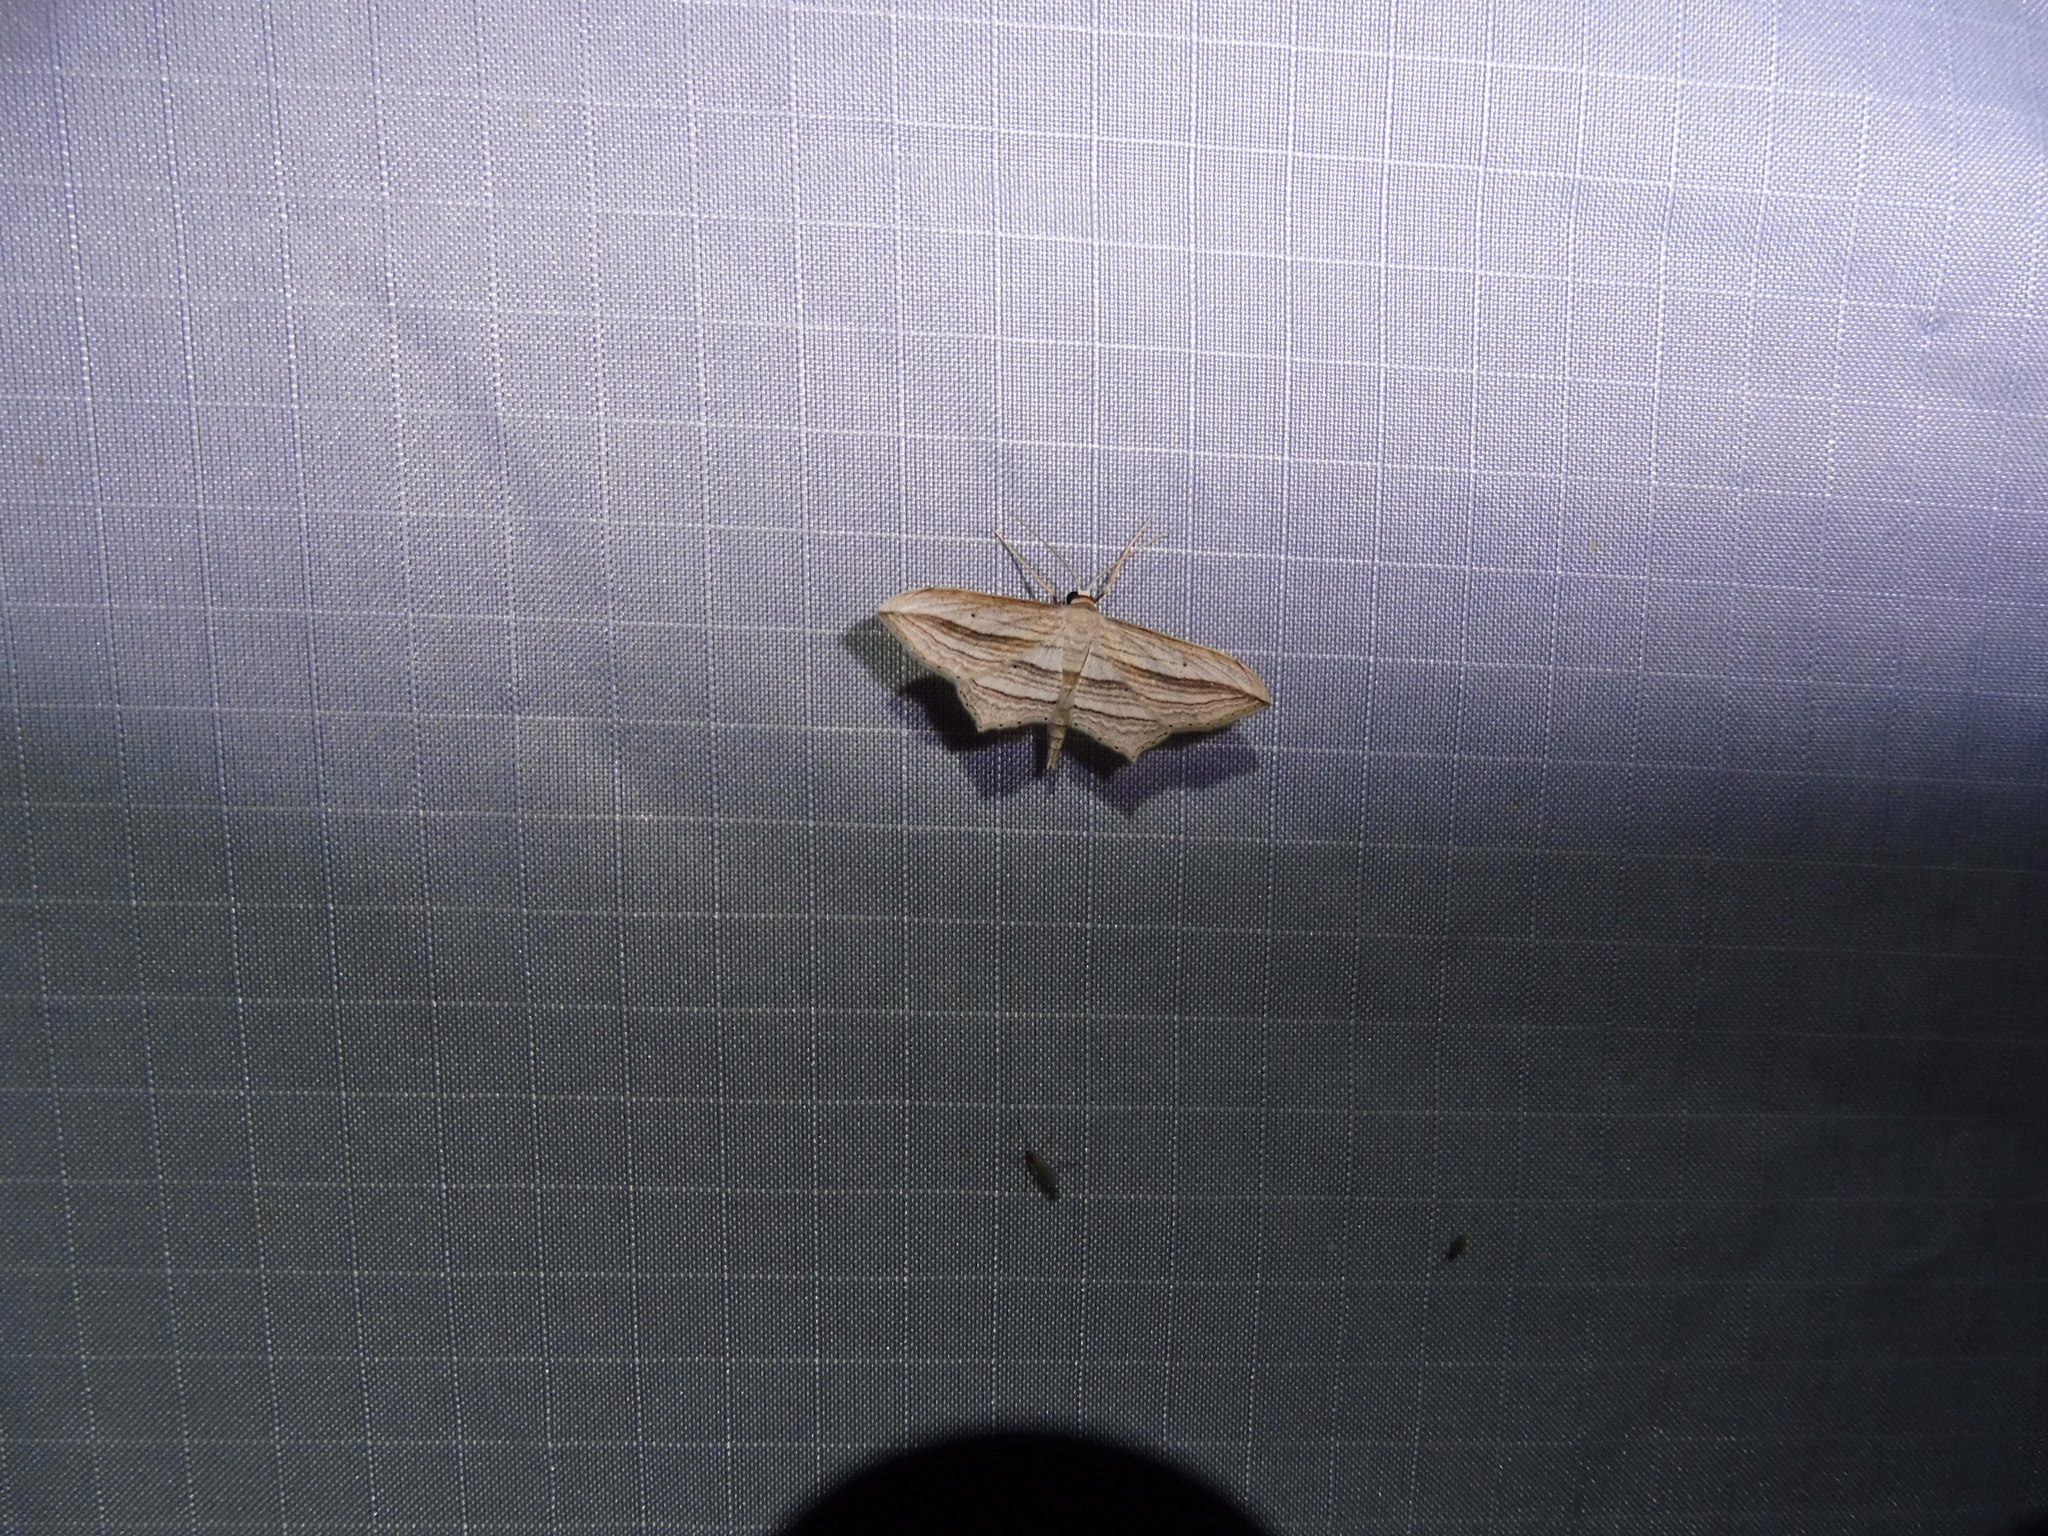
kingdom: Animalia
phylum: Arthropoda
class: Insecta
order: Lepidoptera
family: Geometridae
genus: Arcobara
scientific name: Arcobara multilineata
